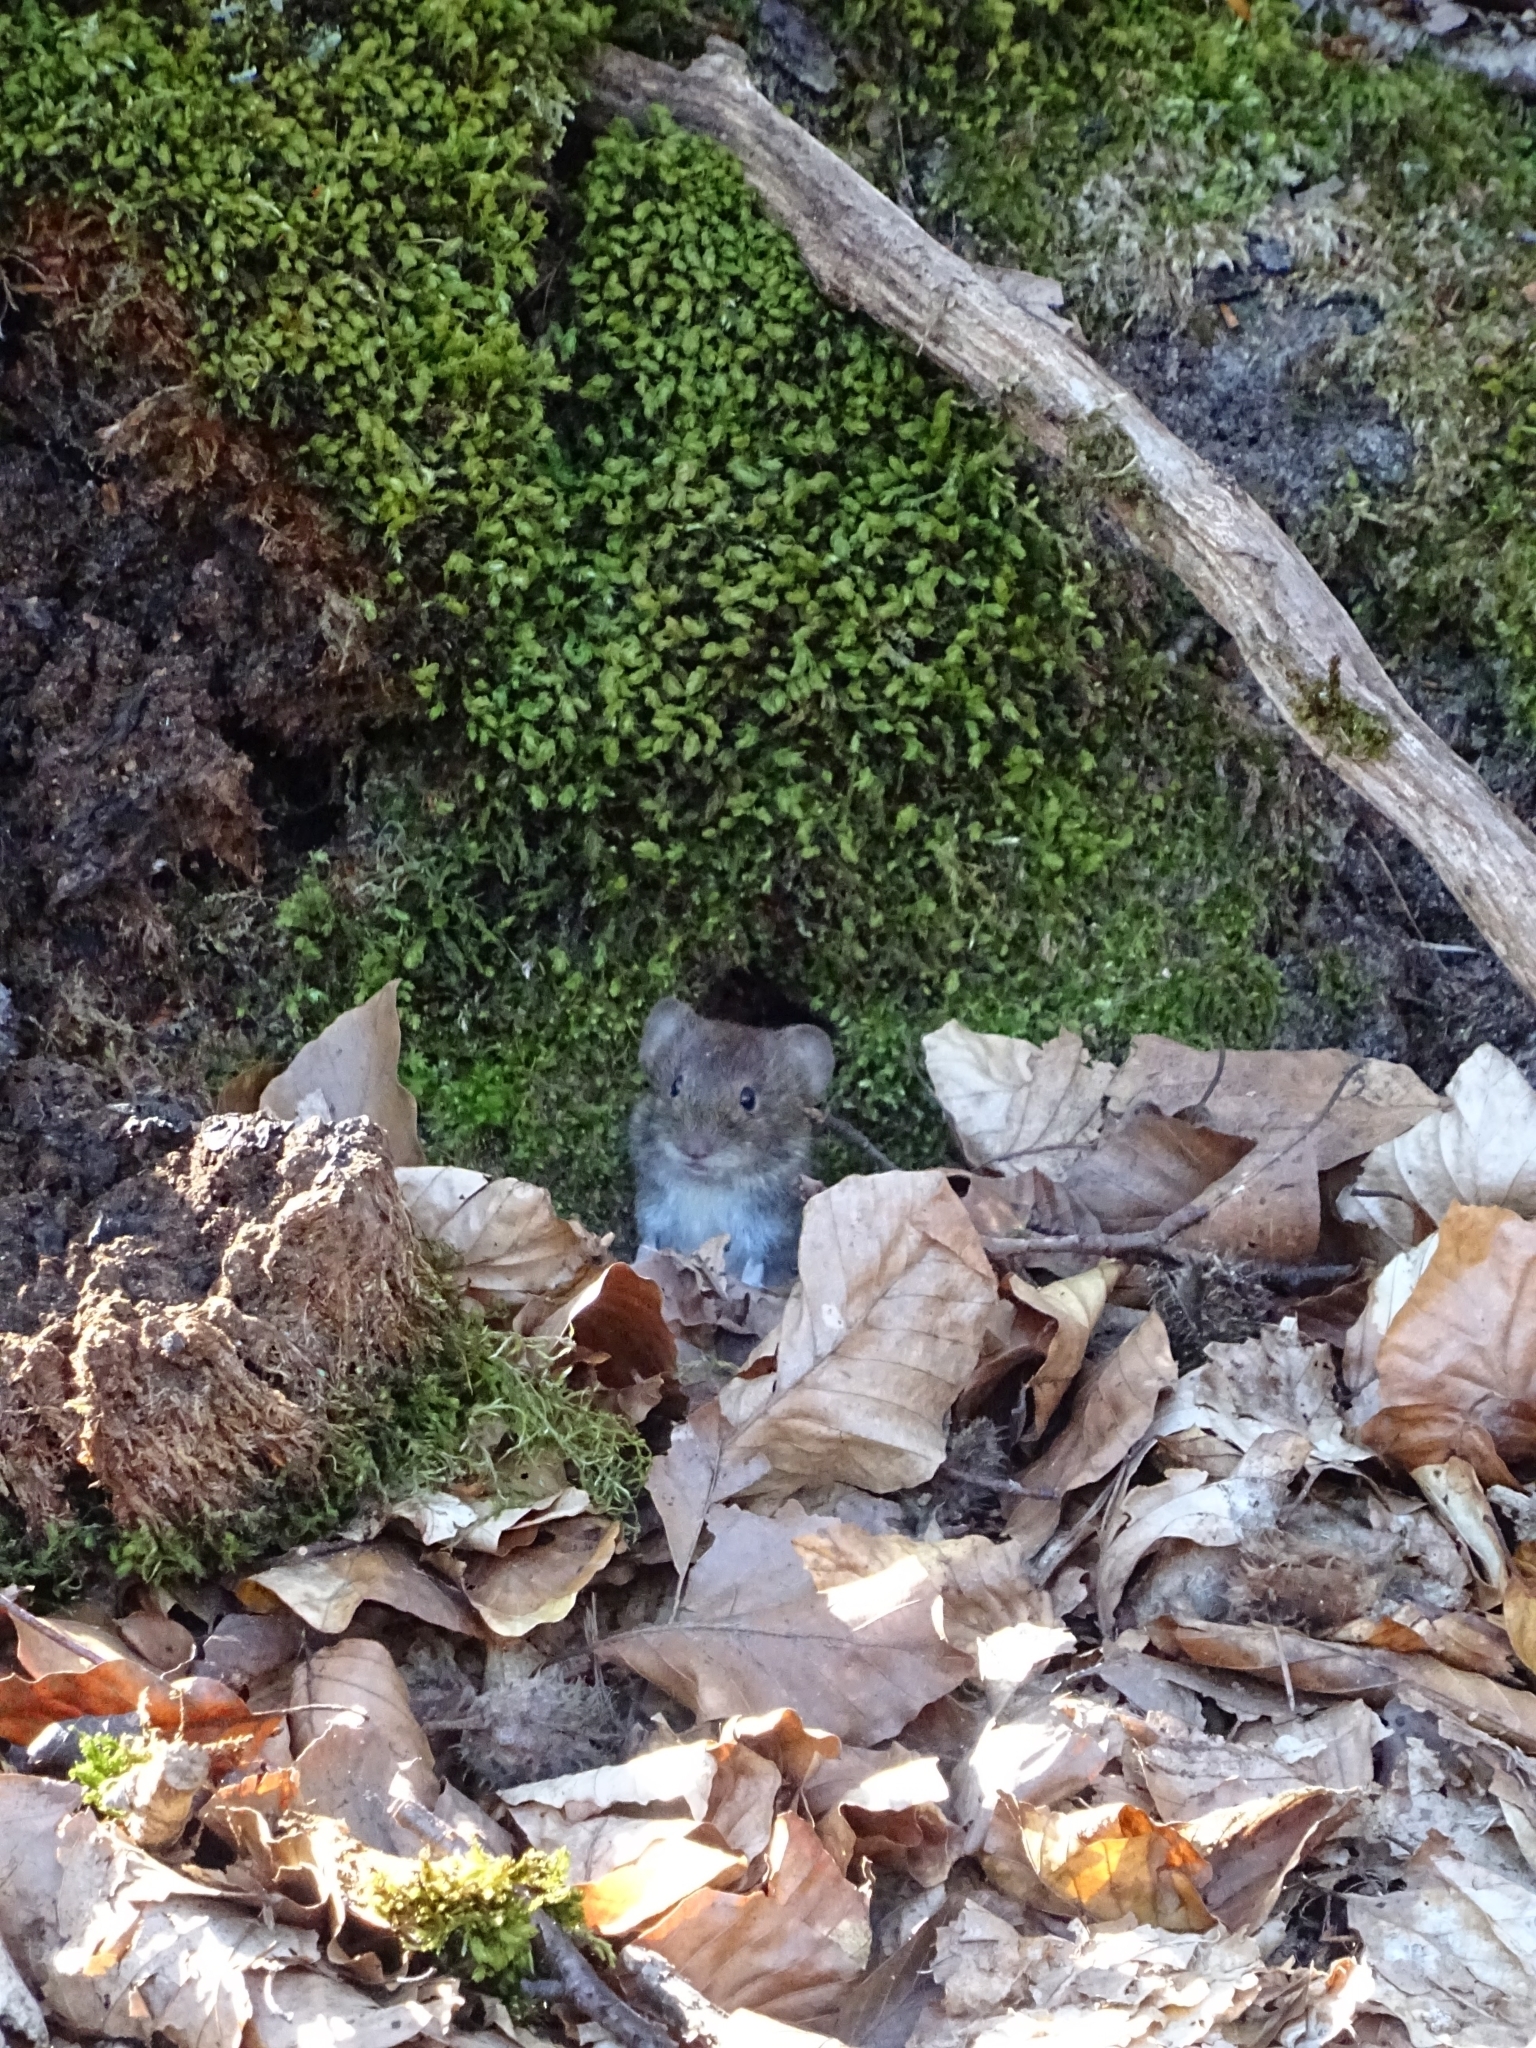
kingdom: Animalia
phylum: Chordata
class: Mammalia
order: Rodentia
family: Cricetidae
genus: Myodes
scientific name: Myodes glareolus
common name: Bank vole
